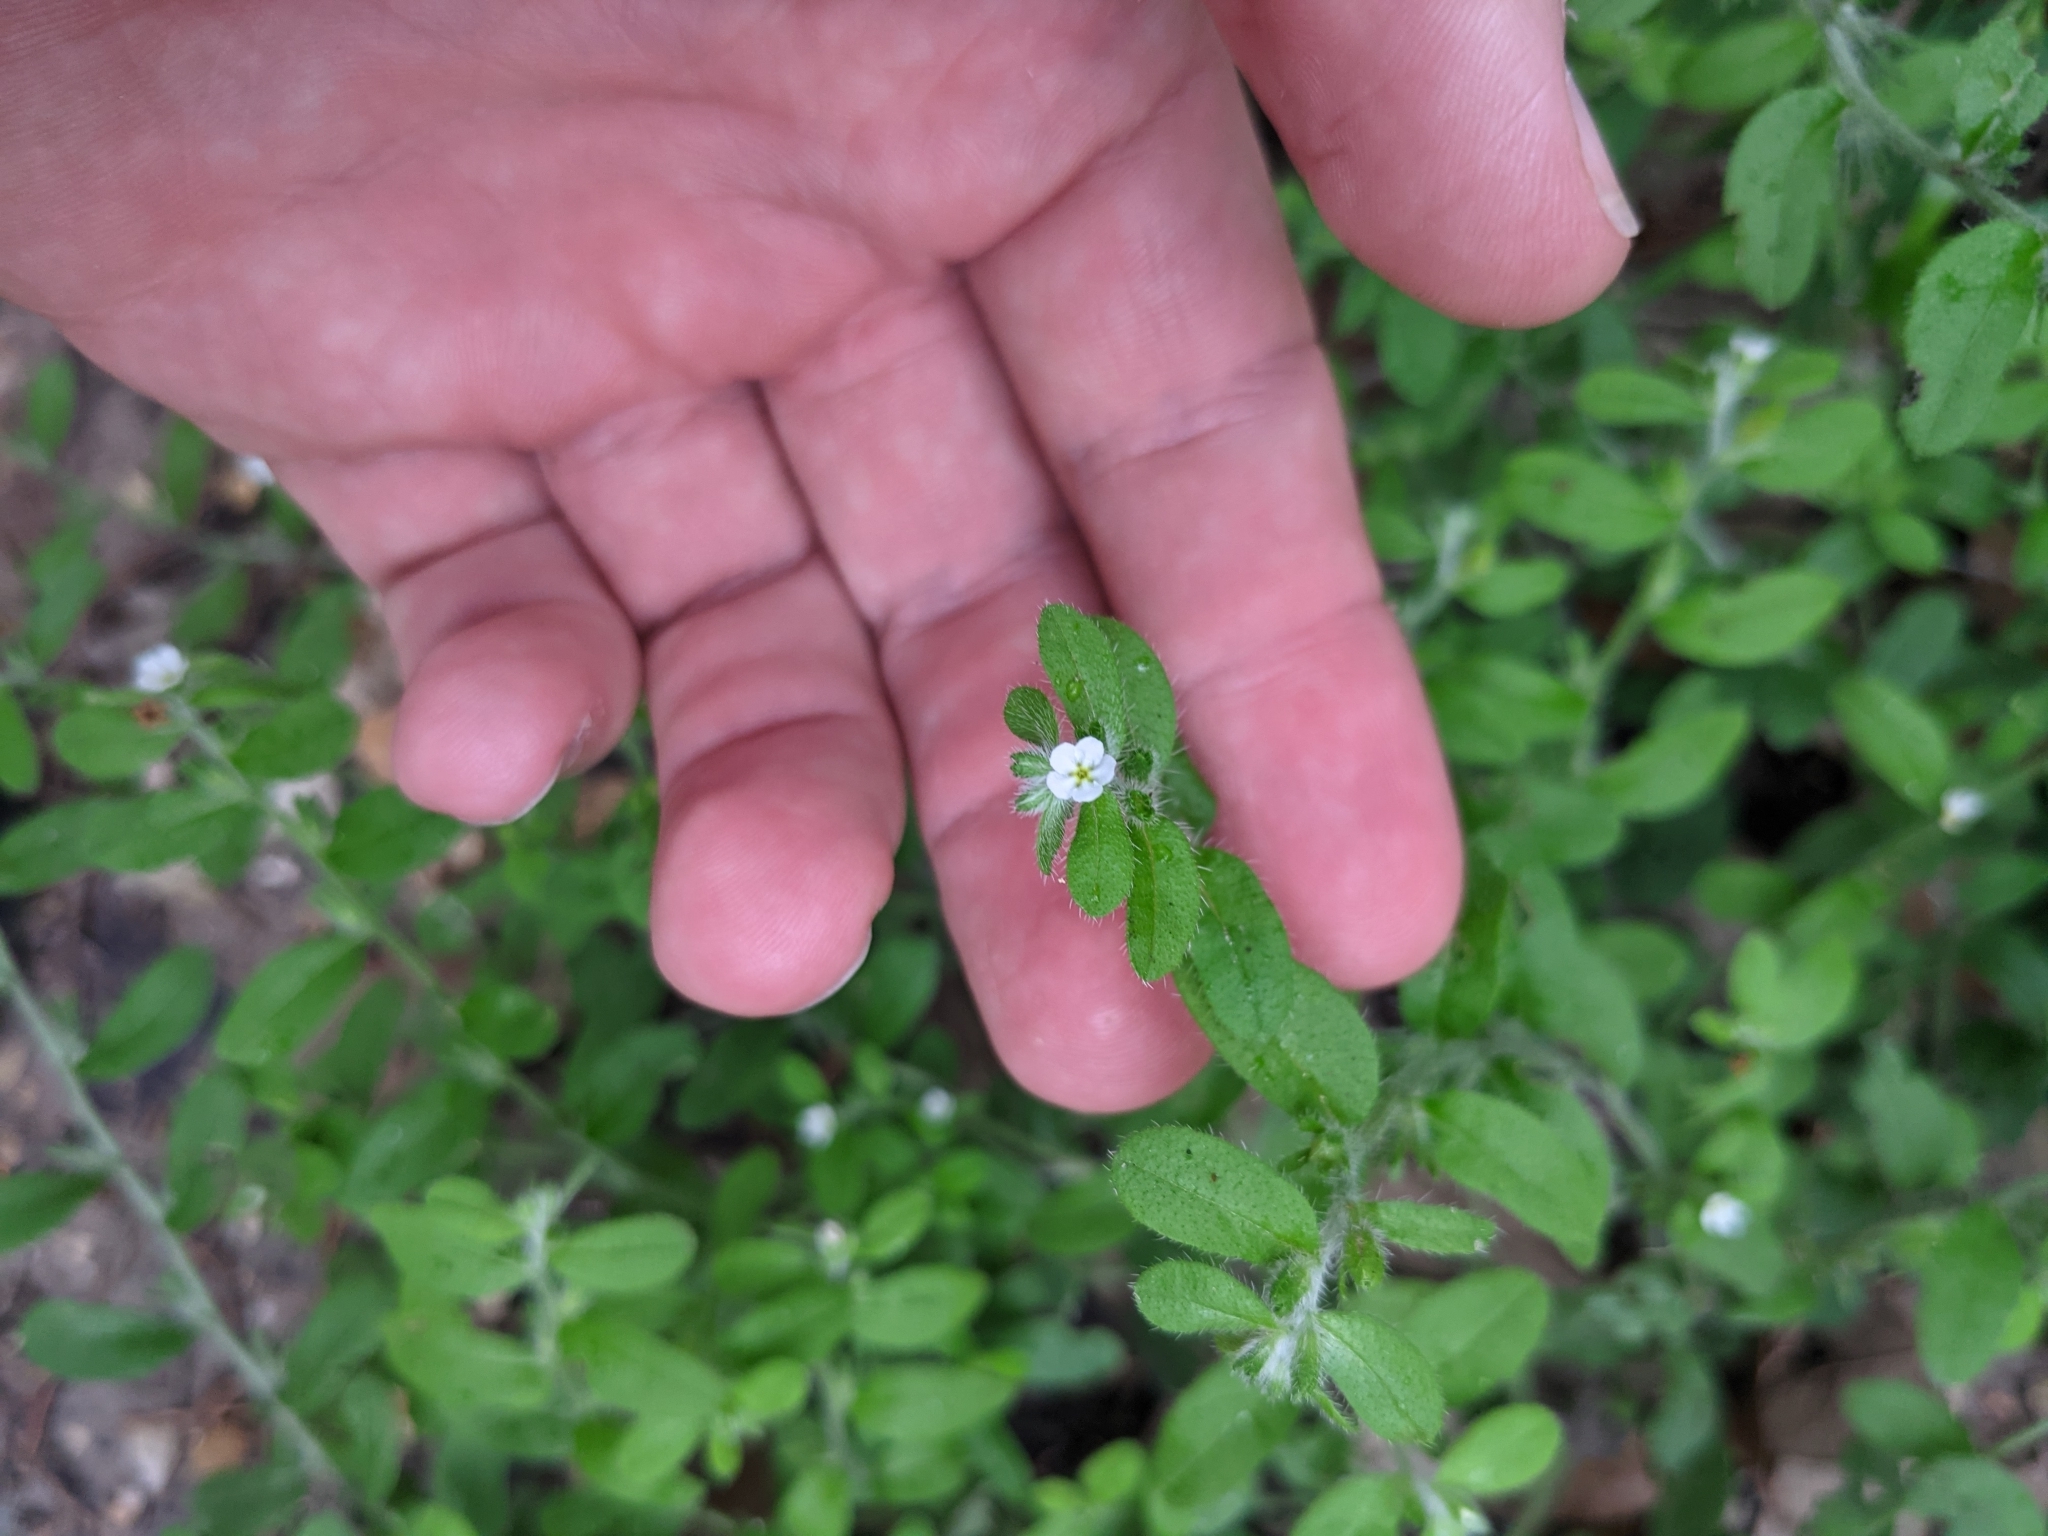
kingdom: Plantae
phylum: Tracheophyta
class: Magnoliopsida
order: Boraginales
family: Boraginaceae
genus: Lithospermum
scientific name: Lithospermum matamorense
